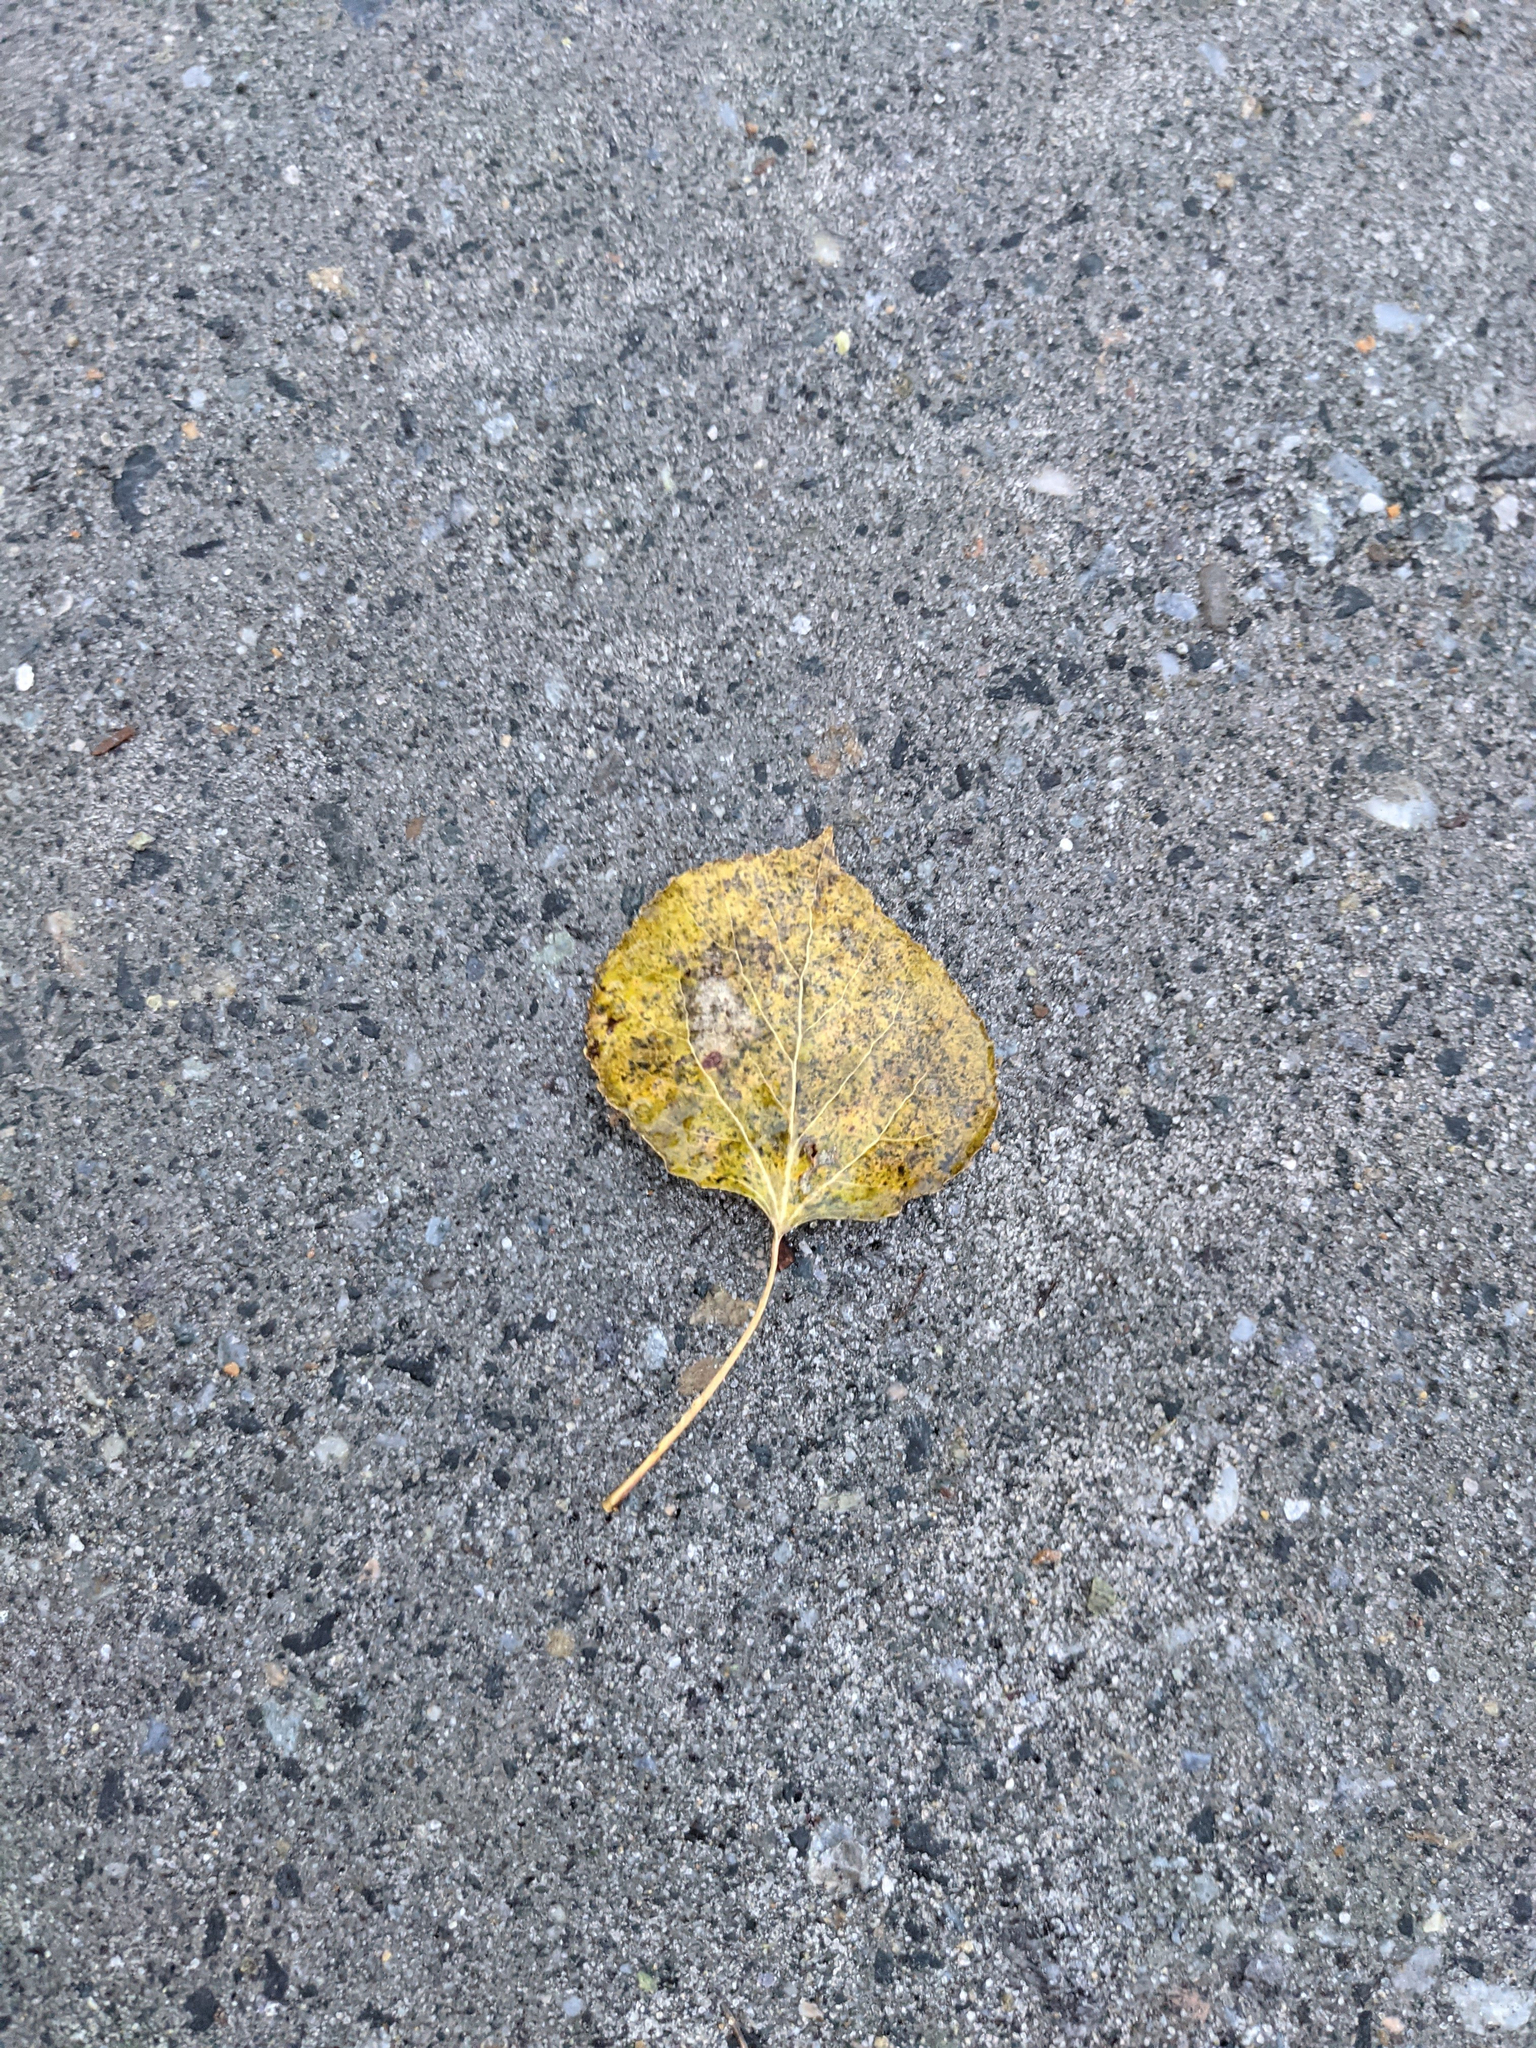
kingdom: Plantae
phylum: Tracheophyta
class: Magnoliopsida
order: Malpighiales
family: Salicaceae
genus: Populus
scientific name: Populus tremuloides
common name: Quaking aspen
